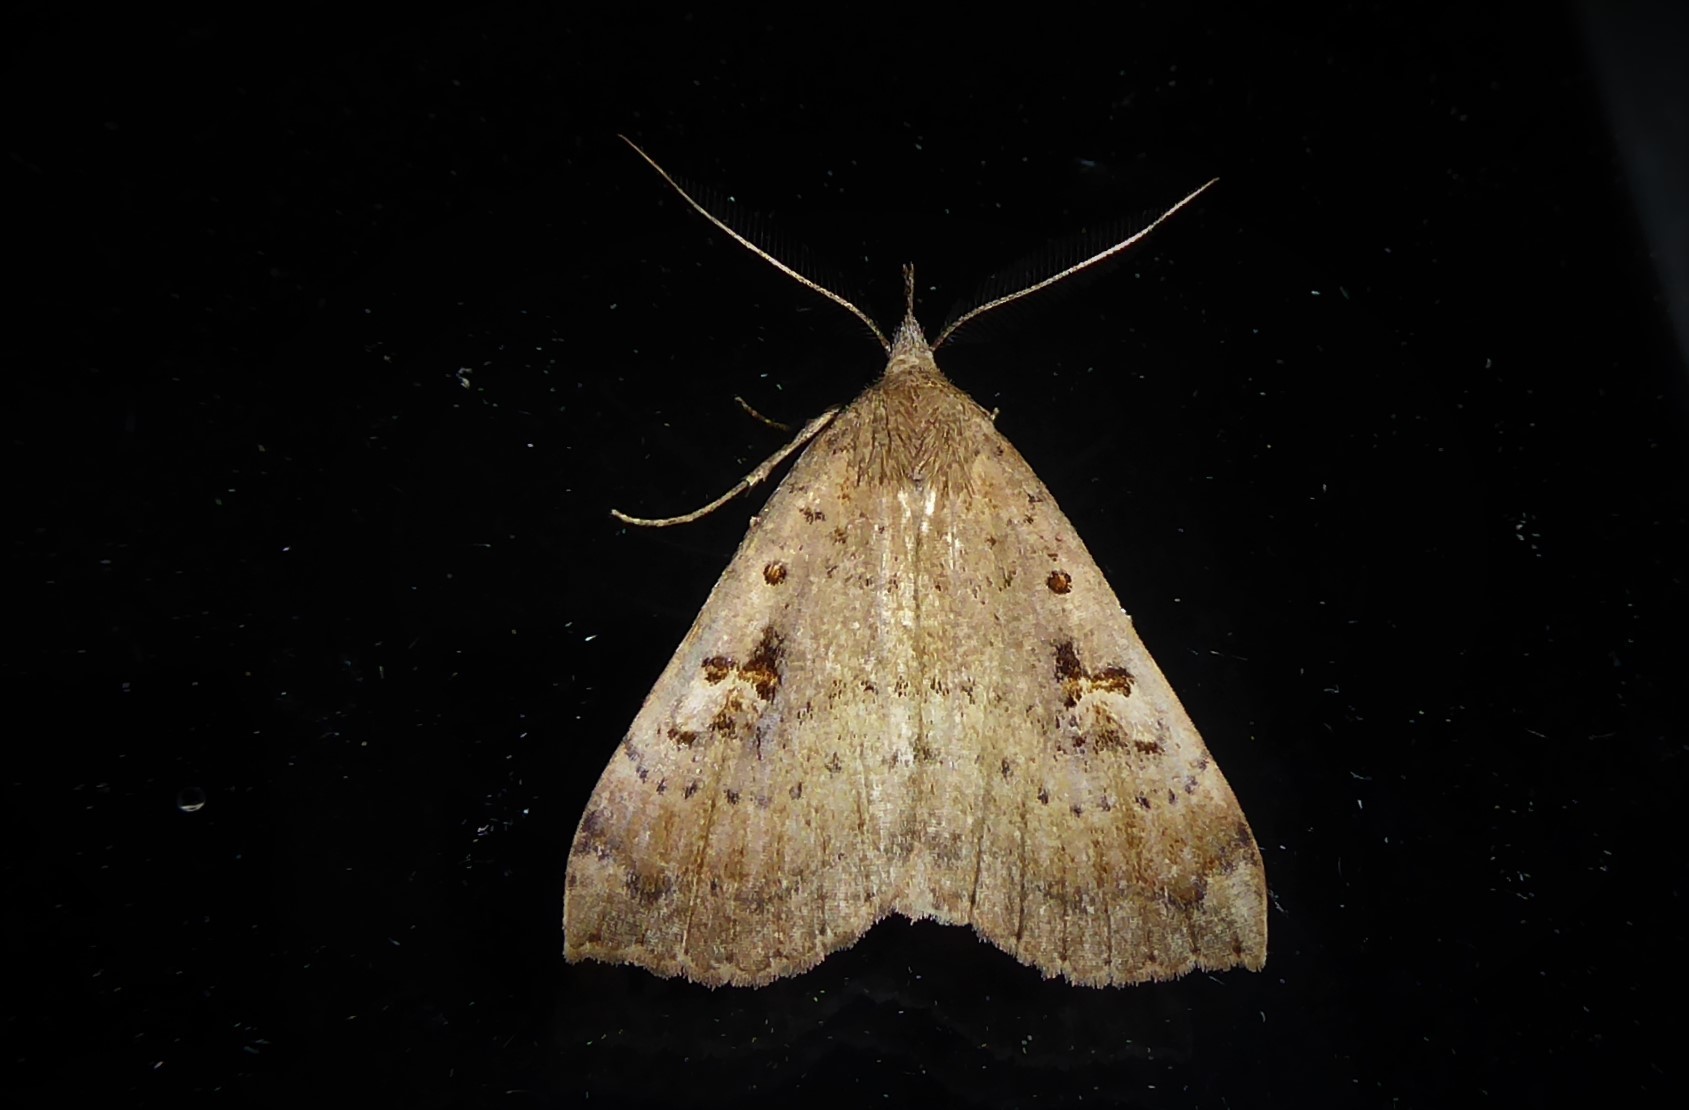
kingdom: Animalia
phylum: Arthropoda
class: Insecta
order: Lepidoptera
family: Erebidae
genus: Rhapsa
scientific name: Rhapsa scotosialis
